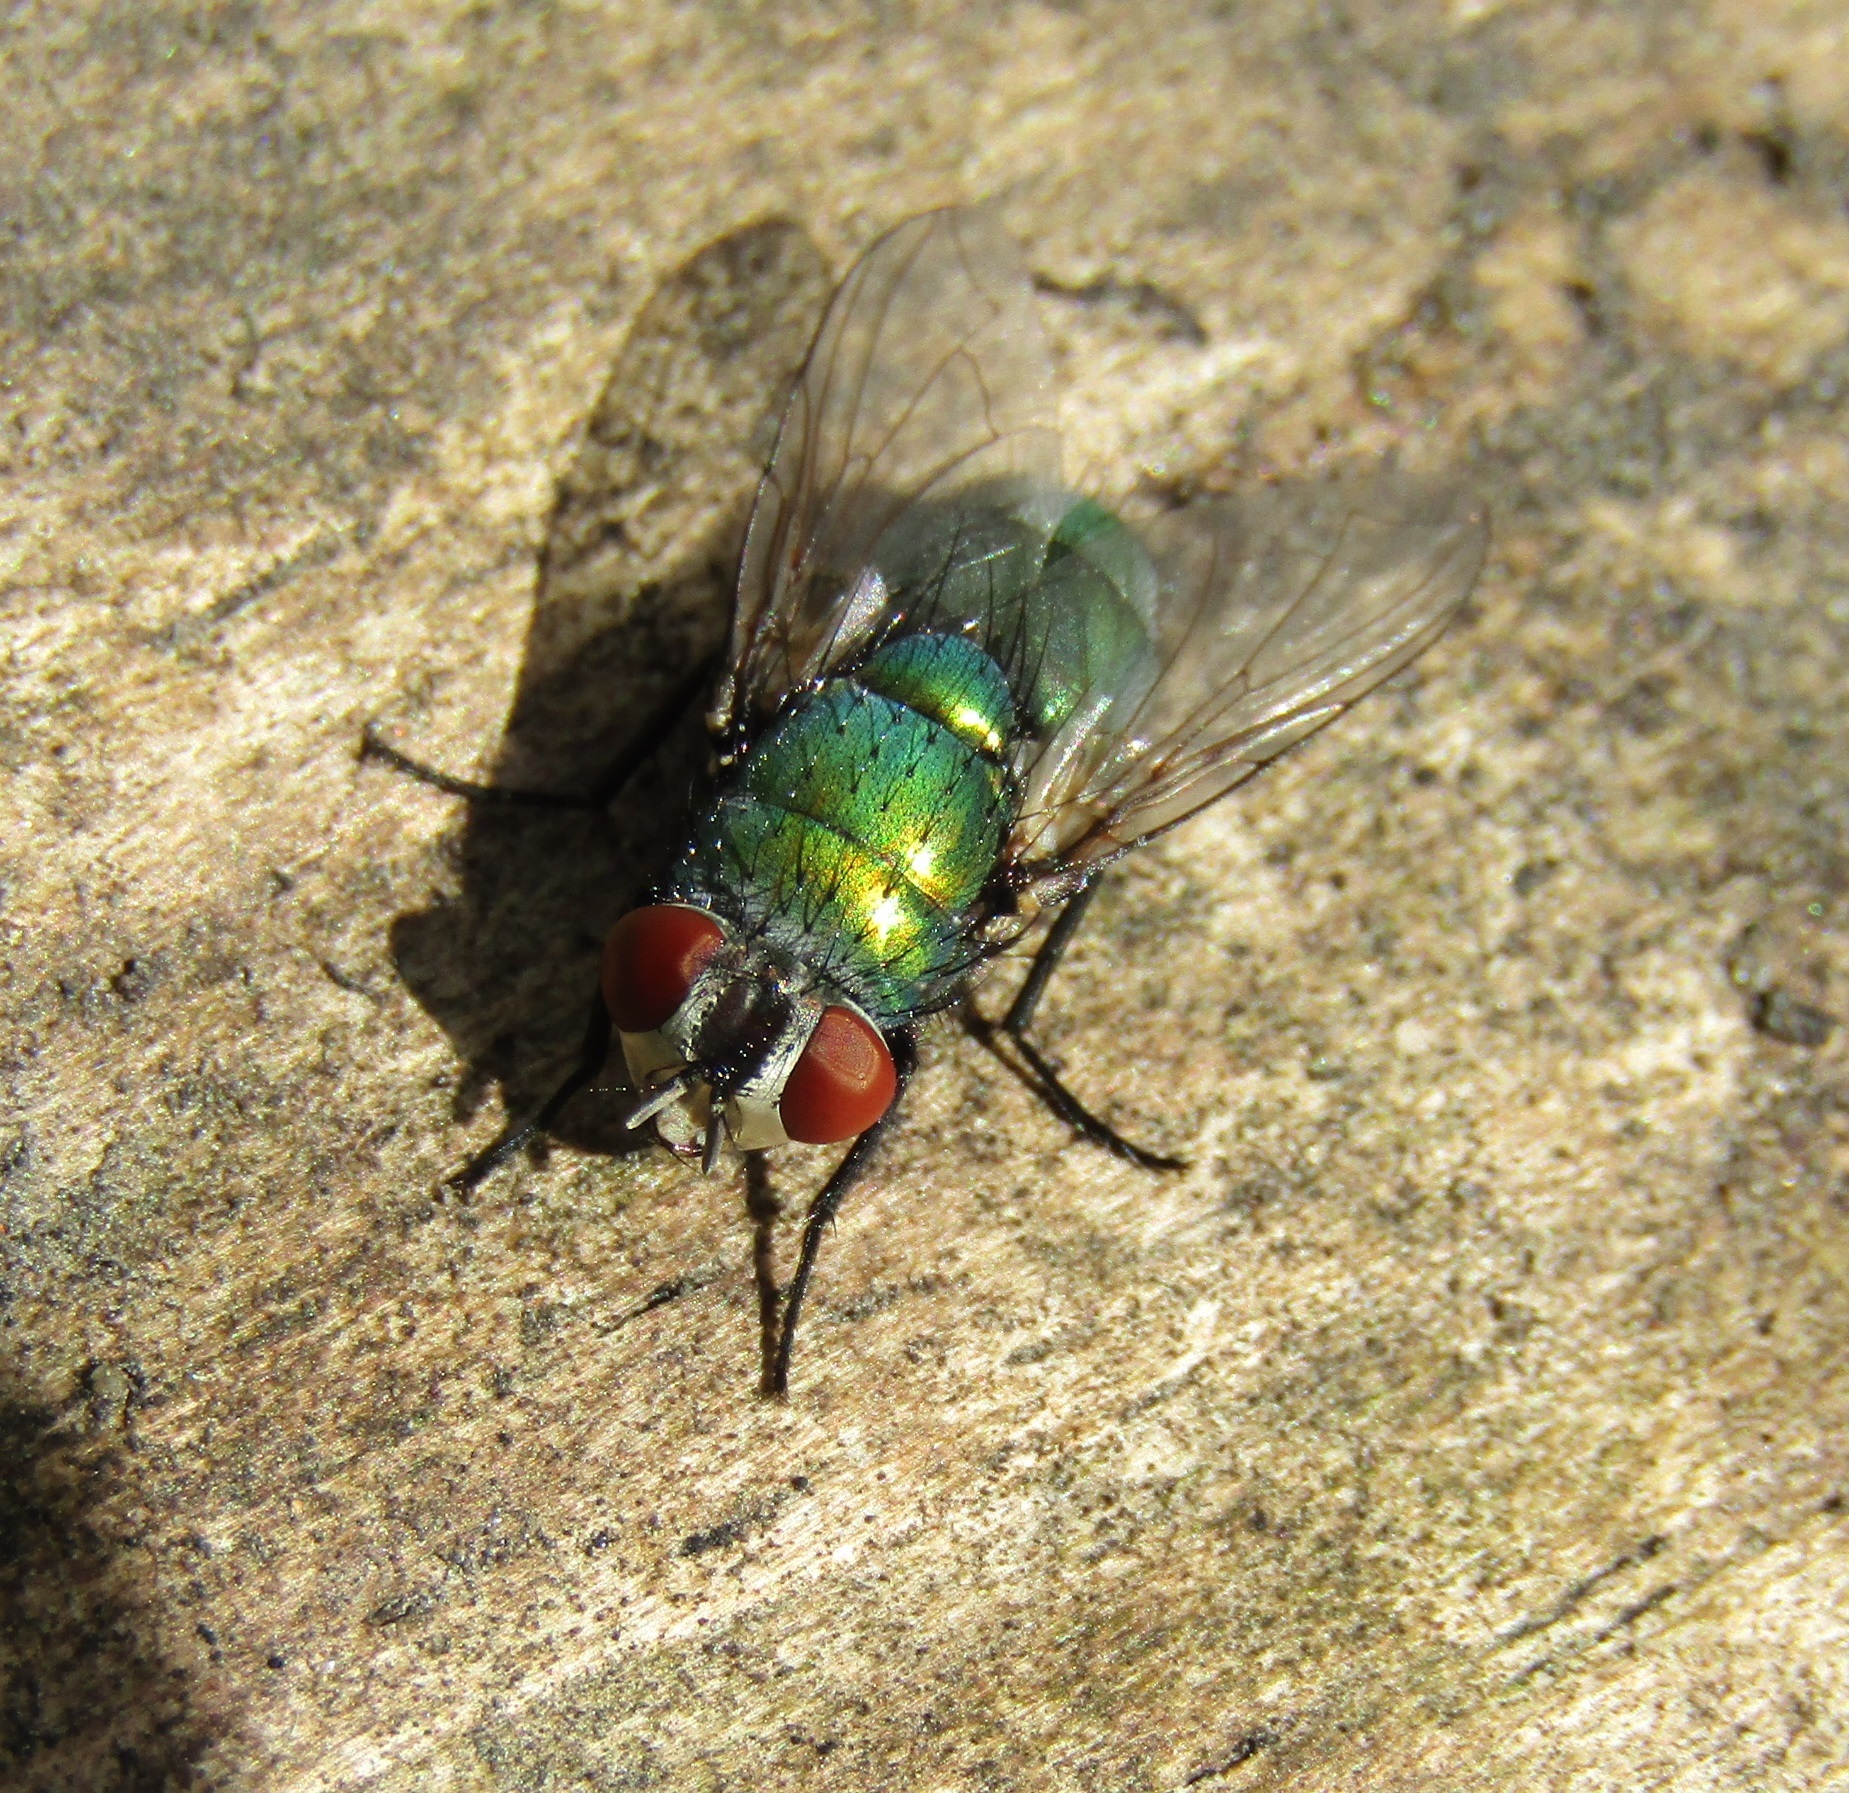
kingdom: Animalia
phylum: Arthropoda
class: Insecta
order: Diptera
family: Calliphoridae
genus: Lucilia
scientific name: Lucilia sericata
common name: Blow fly
